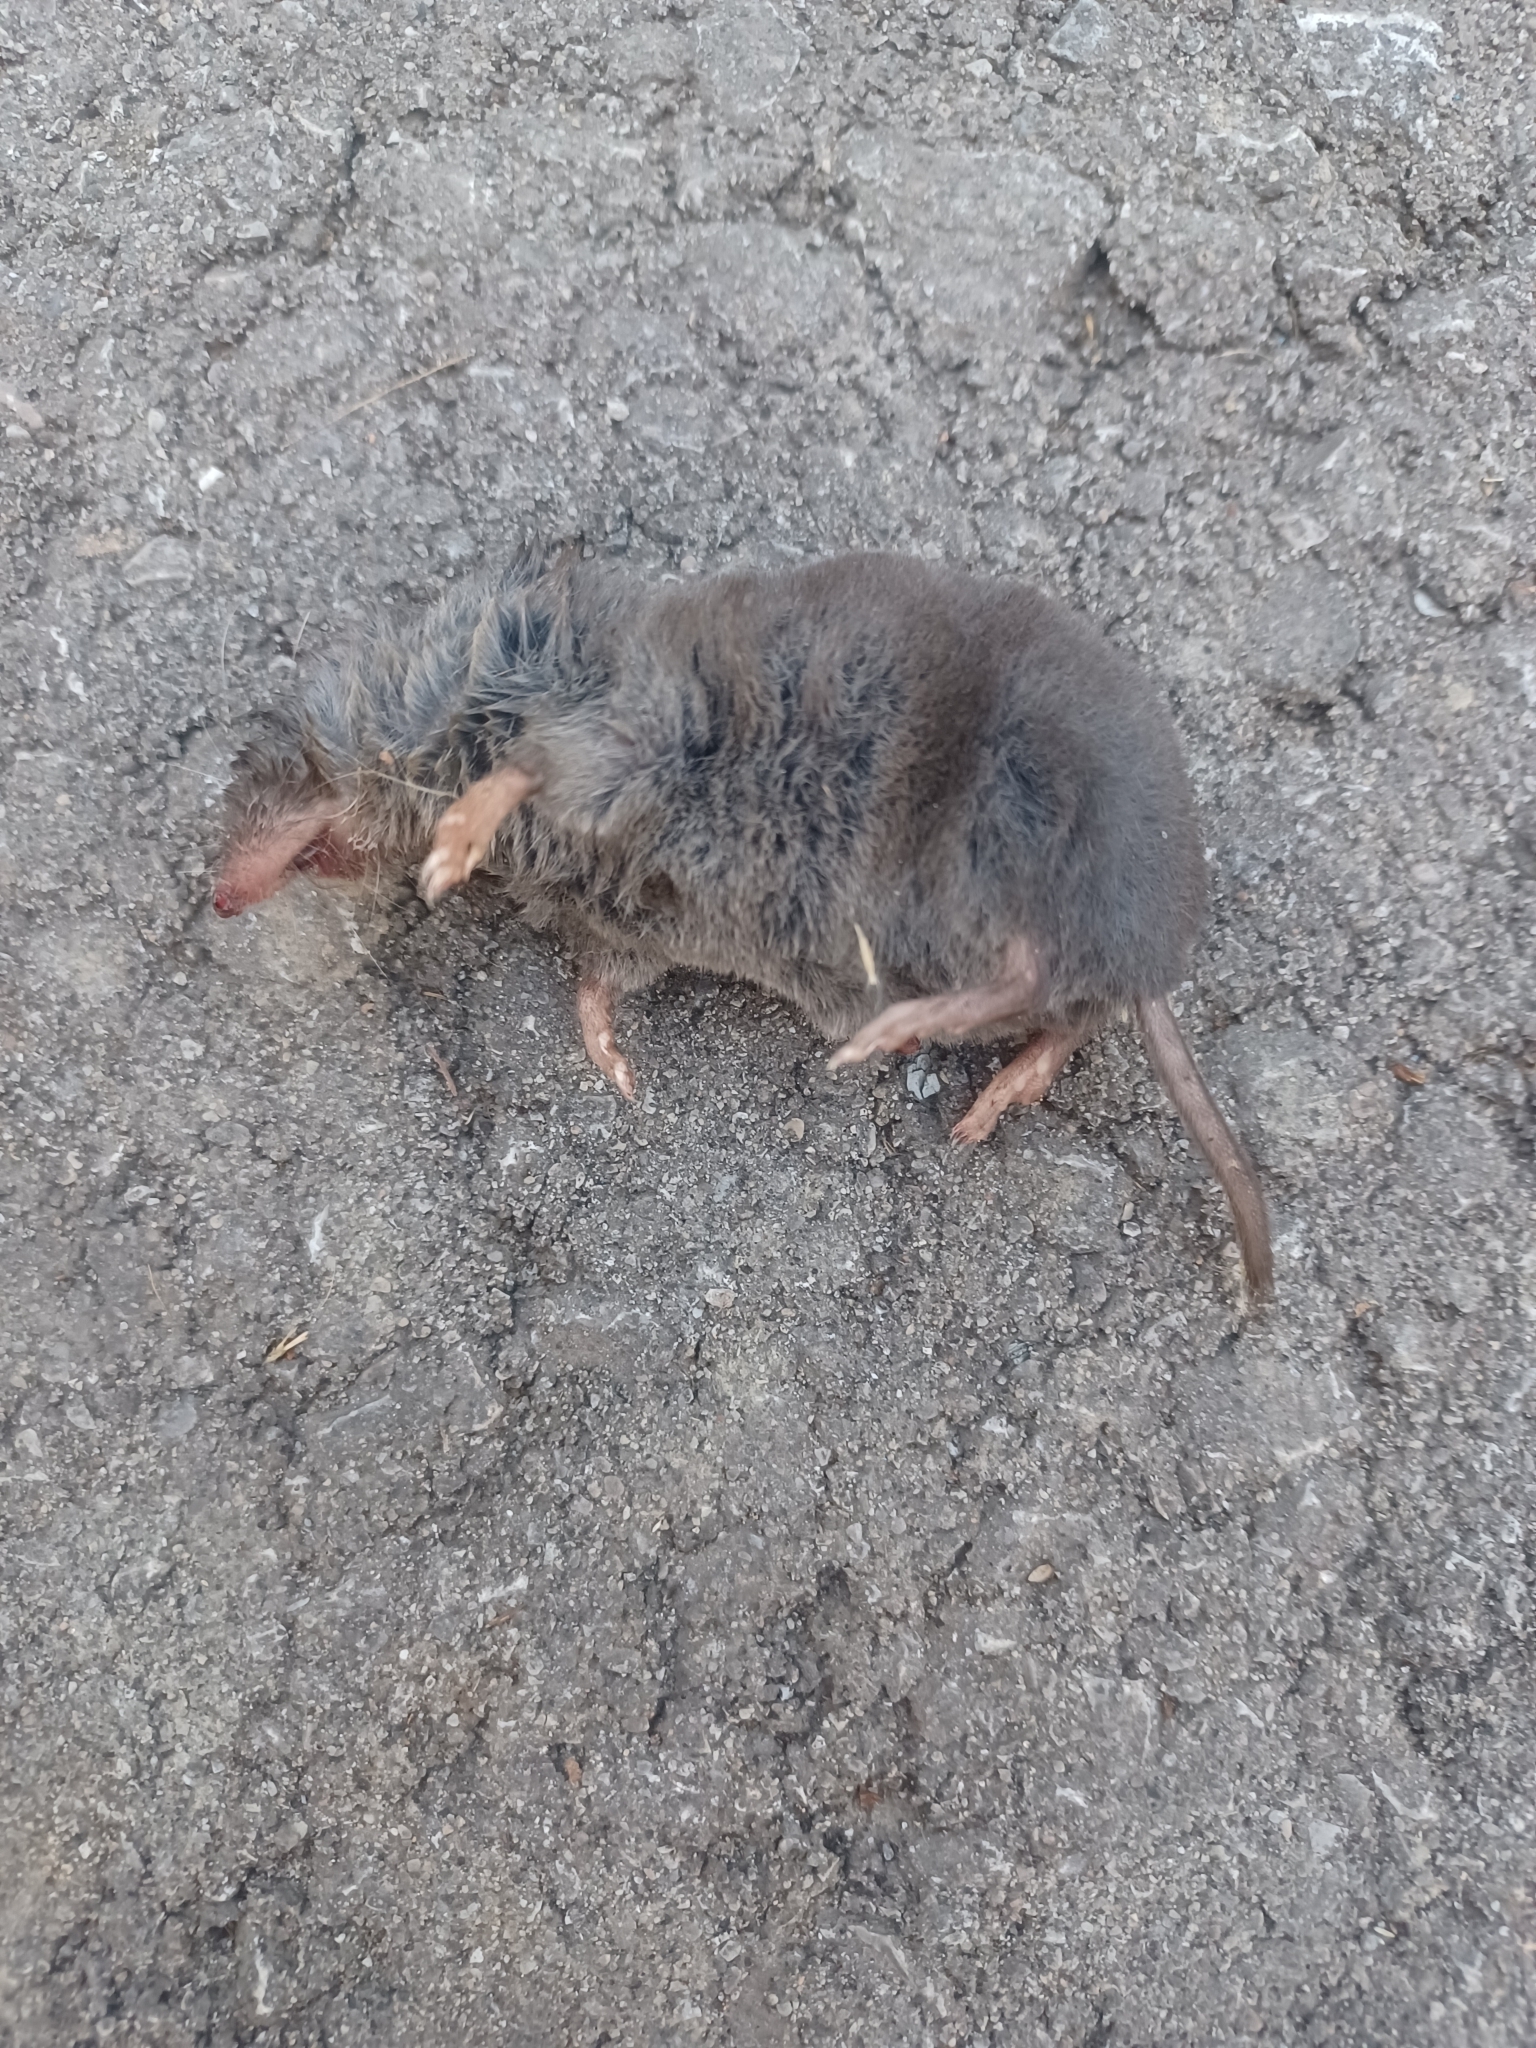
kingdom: Animalia
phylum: Chordata
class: Mammalia
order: Soricomorpha
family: Soricidae
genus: Blarina
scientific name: Blarina brevicauda
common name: Northern short-tailed shrew
